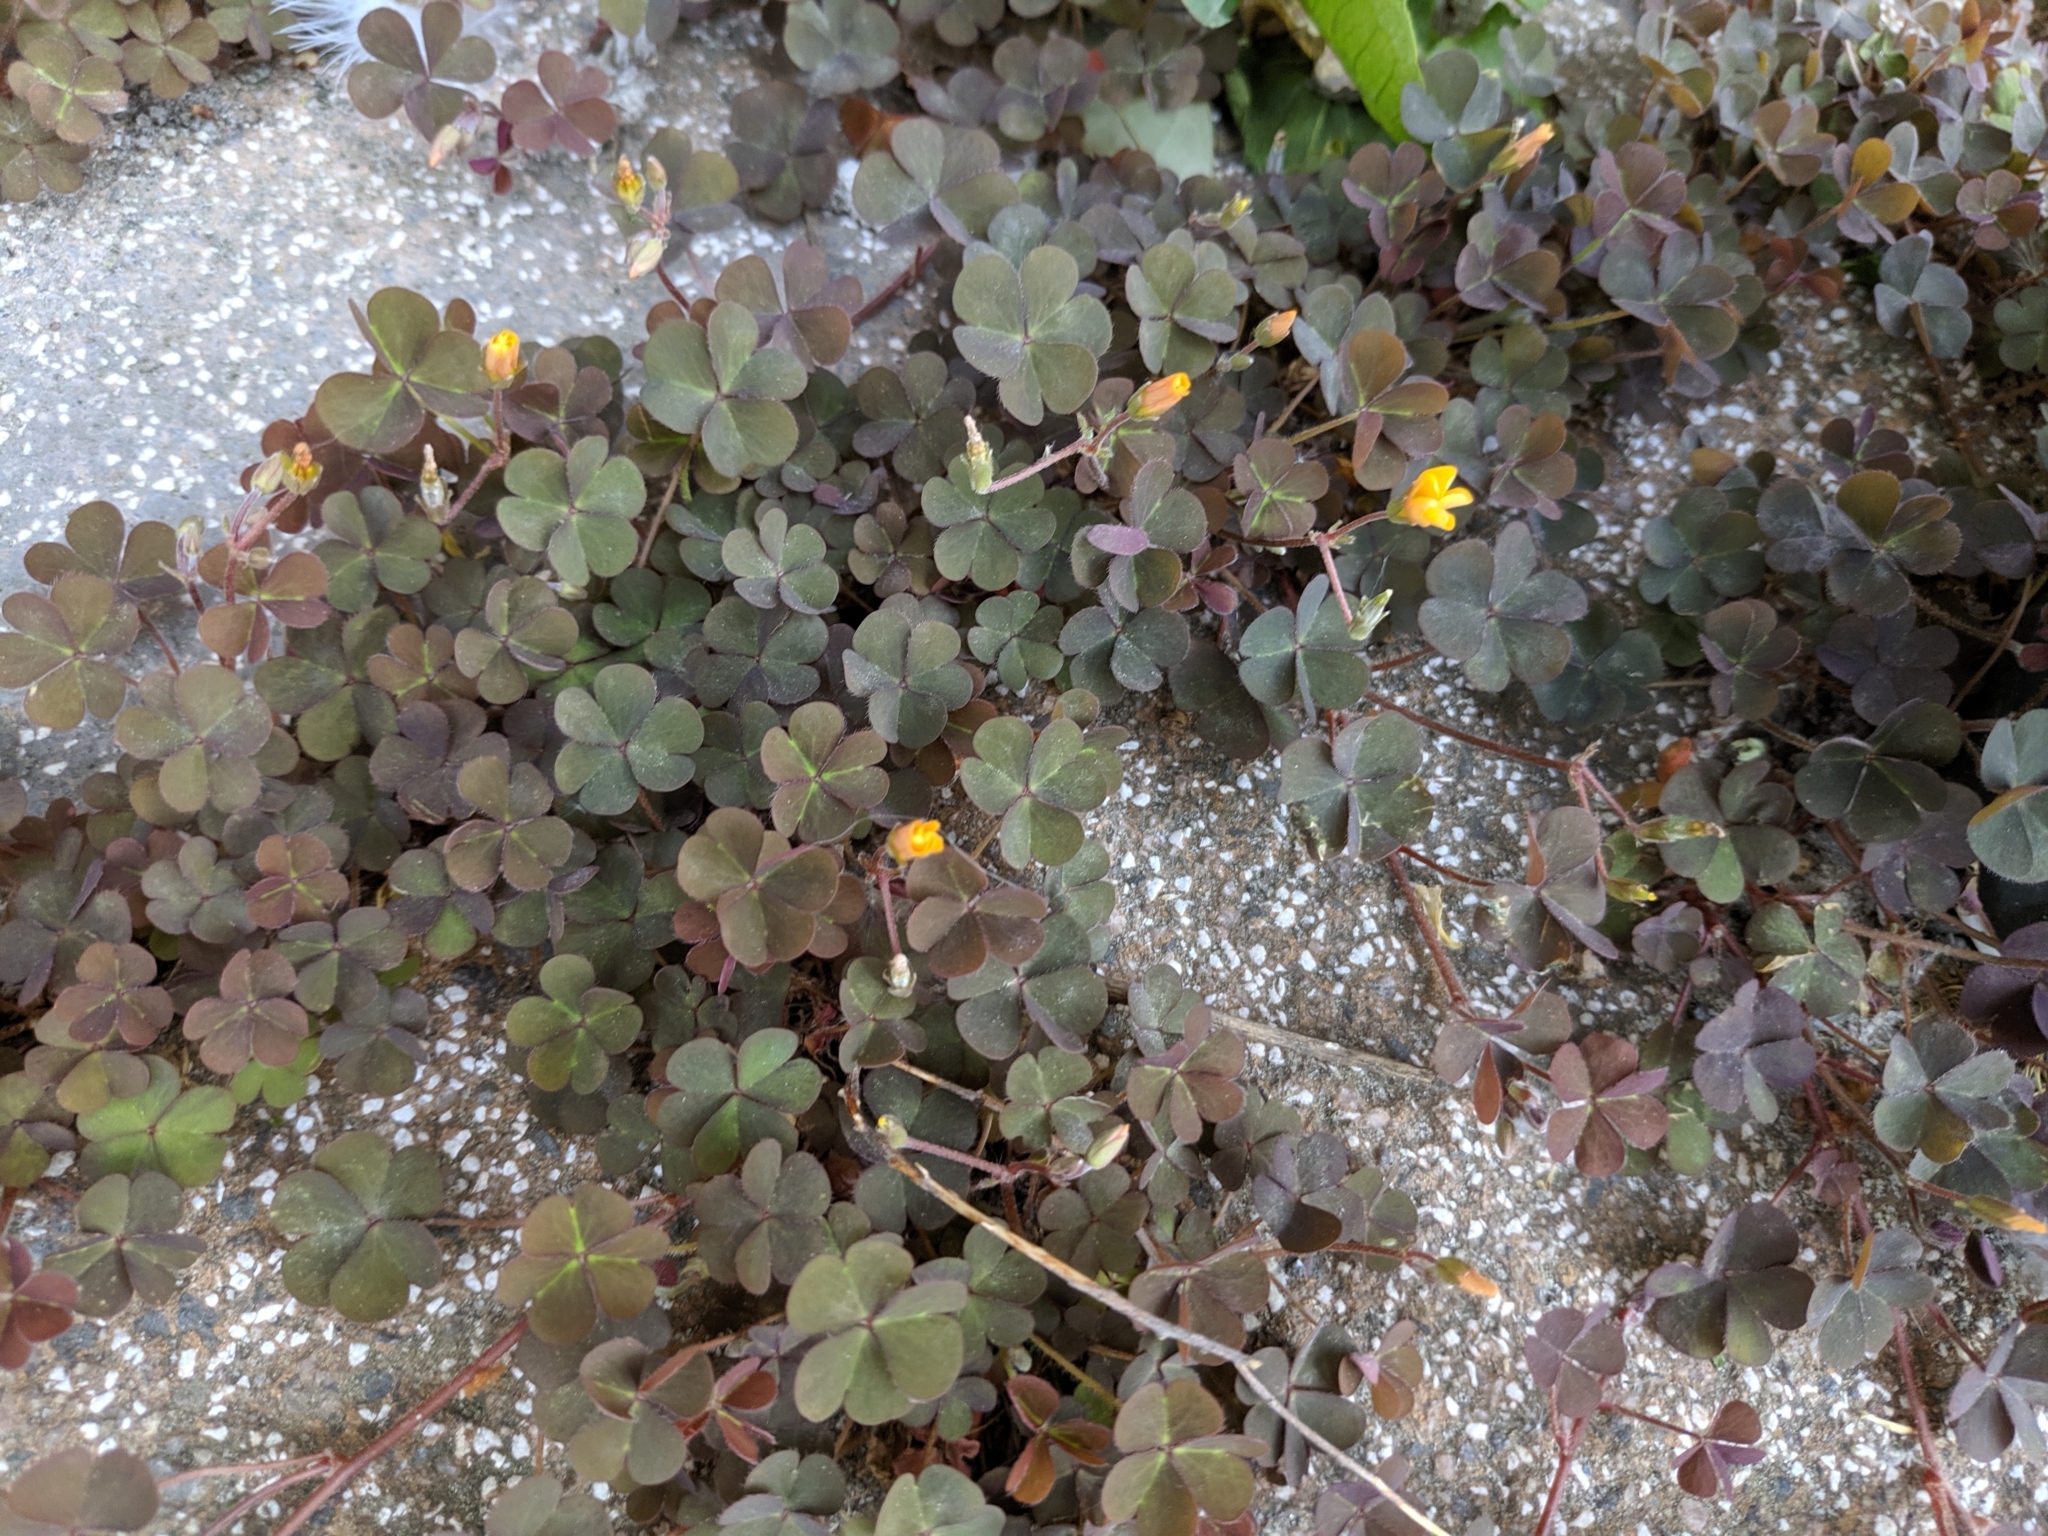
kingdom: Plantae
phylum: Tracheophyta
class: Magnoliopsida
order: Oxalidales
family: Oxalidaceae
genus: Oxalis
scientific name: Oxalis corniculata
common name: Procumbent yellow-sorrel
